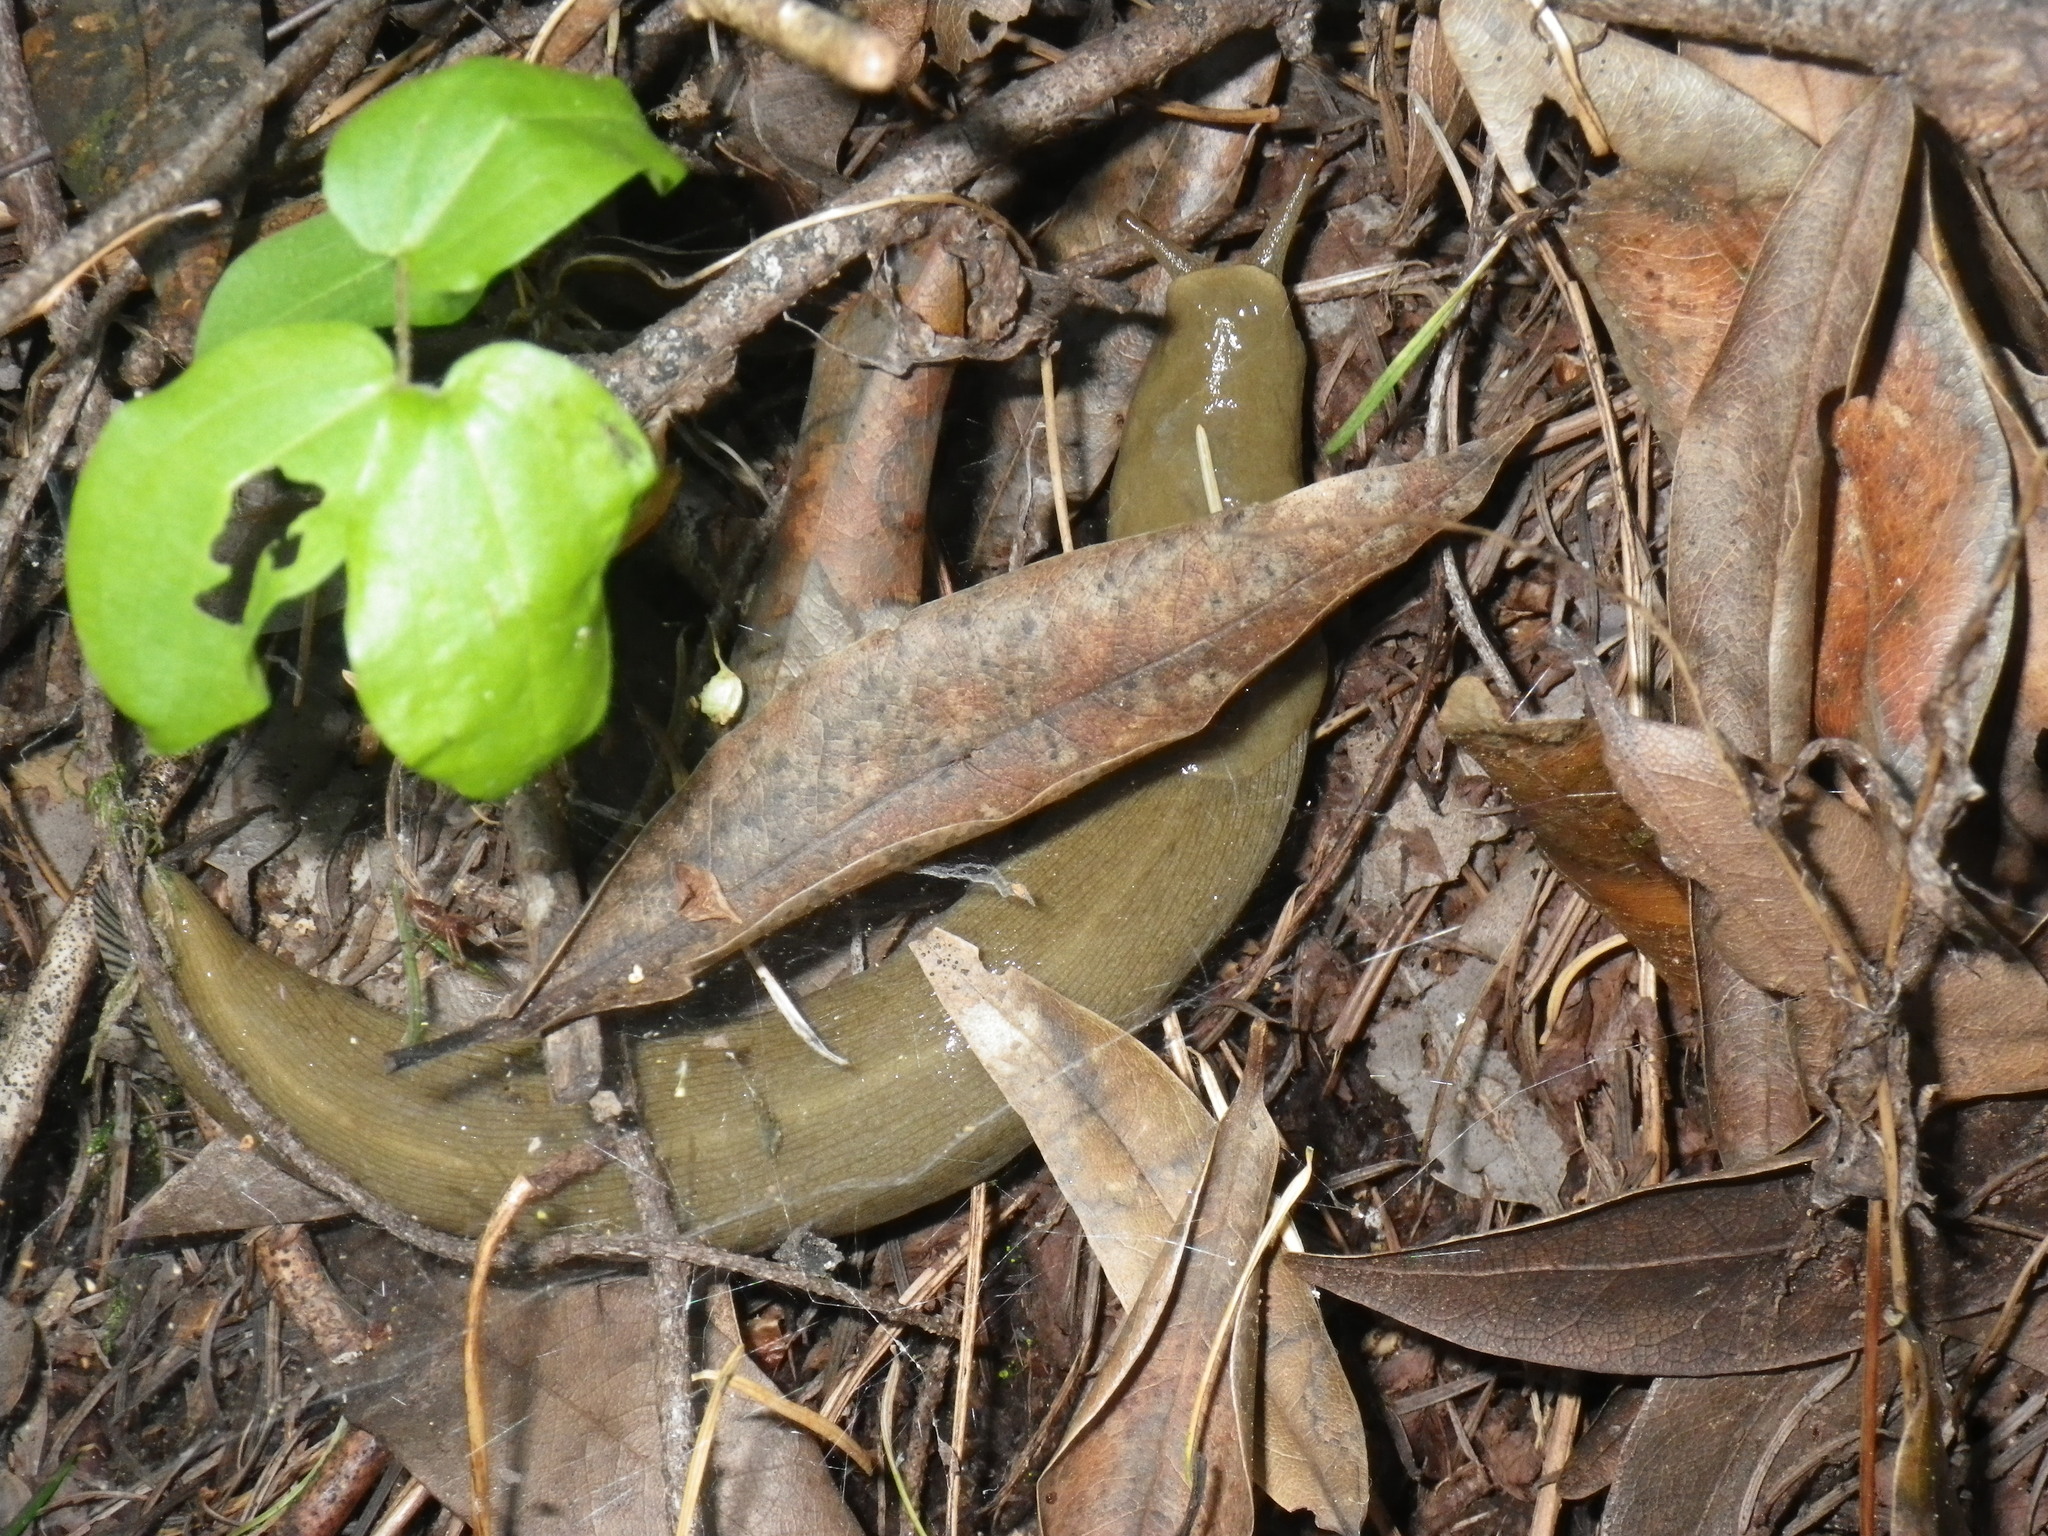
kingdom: Animalia
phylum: Mollusca
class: Gastropoda
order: Stylommatophora
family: Ariolimacidae
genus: Ariolimax
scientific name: Ariolimax buttoni
